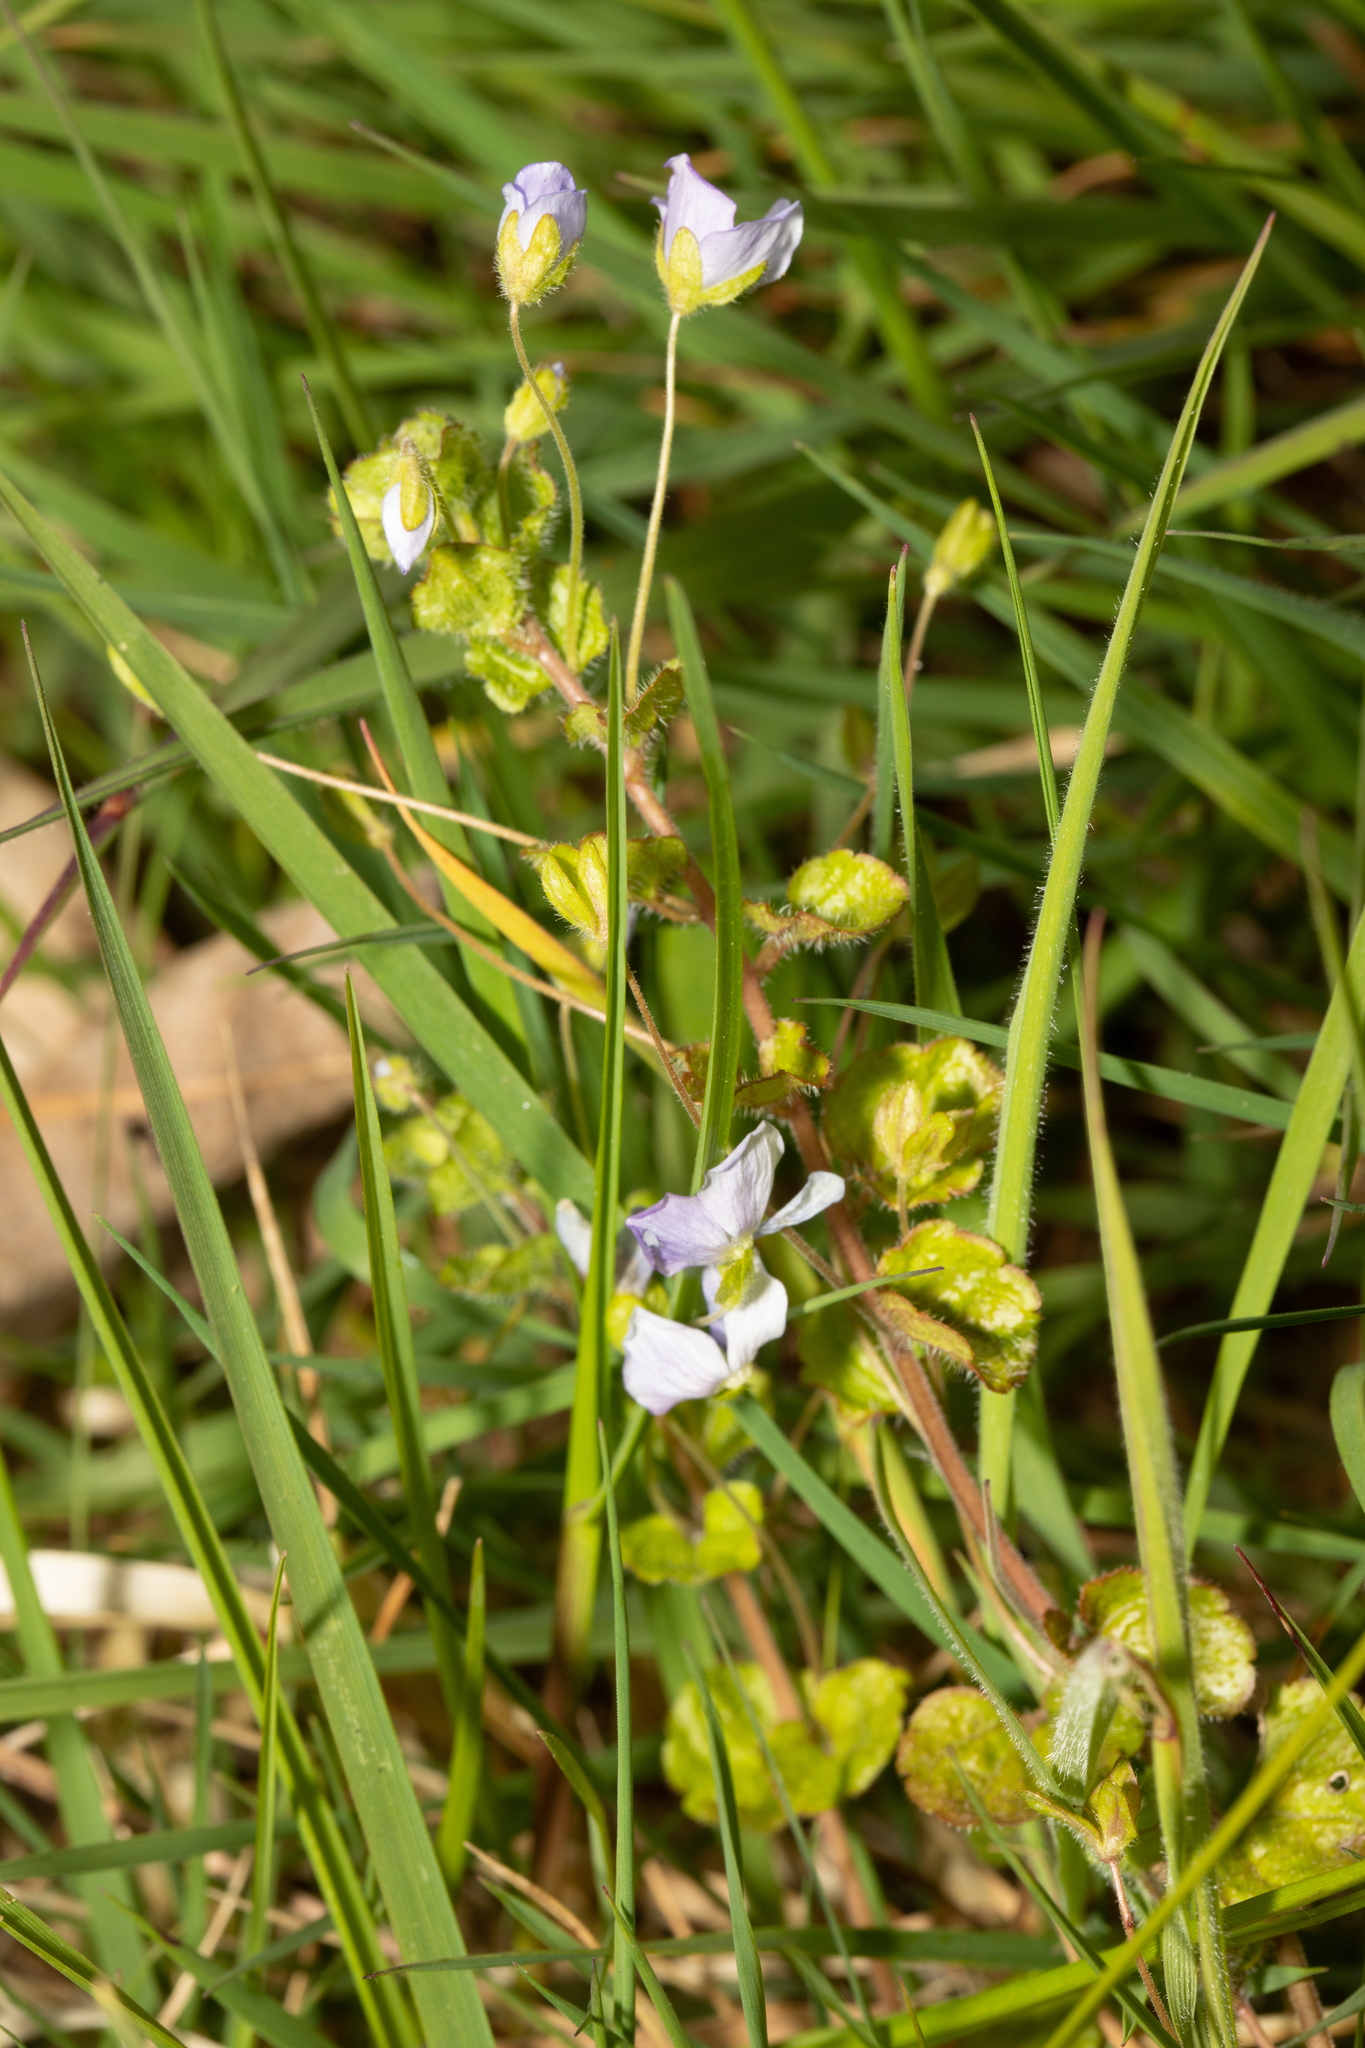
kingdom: Plantae
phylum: Tracheophyta
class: Magnoliopsida
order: Lamiales
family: Plantaginaceae
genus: Veronica
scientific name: Veronica filiformis
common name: Slender speedwell
